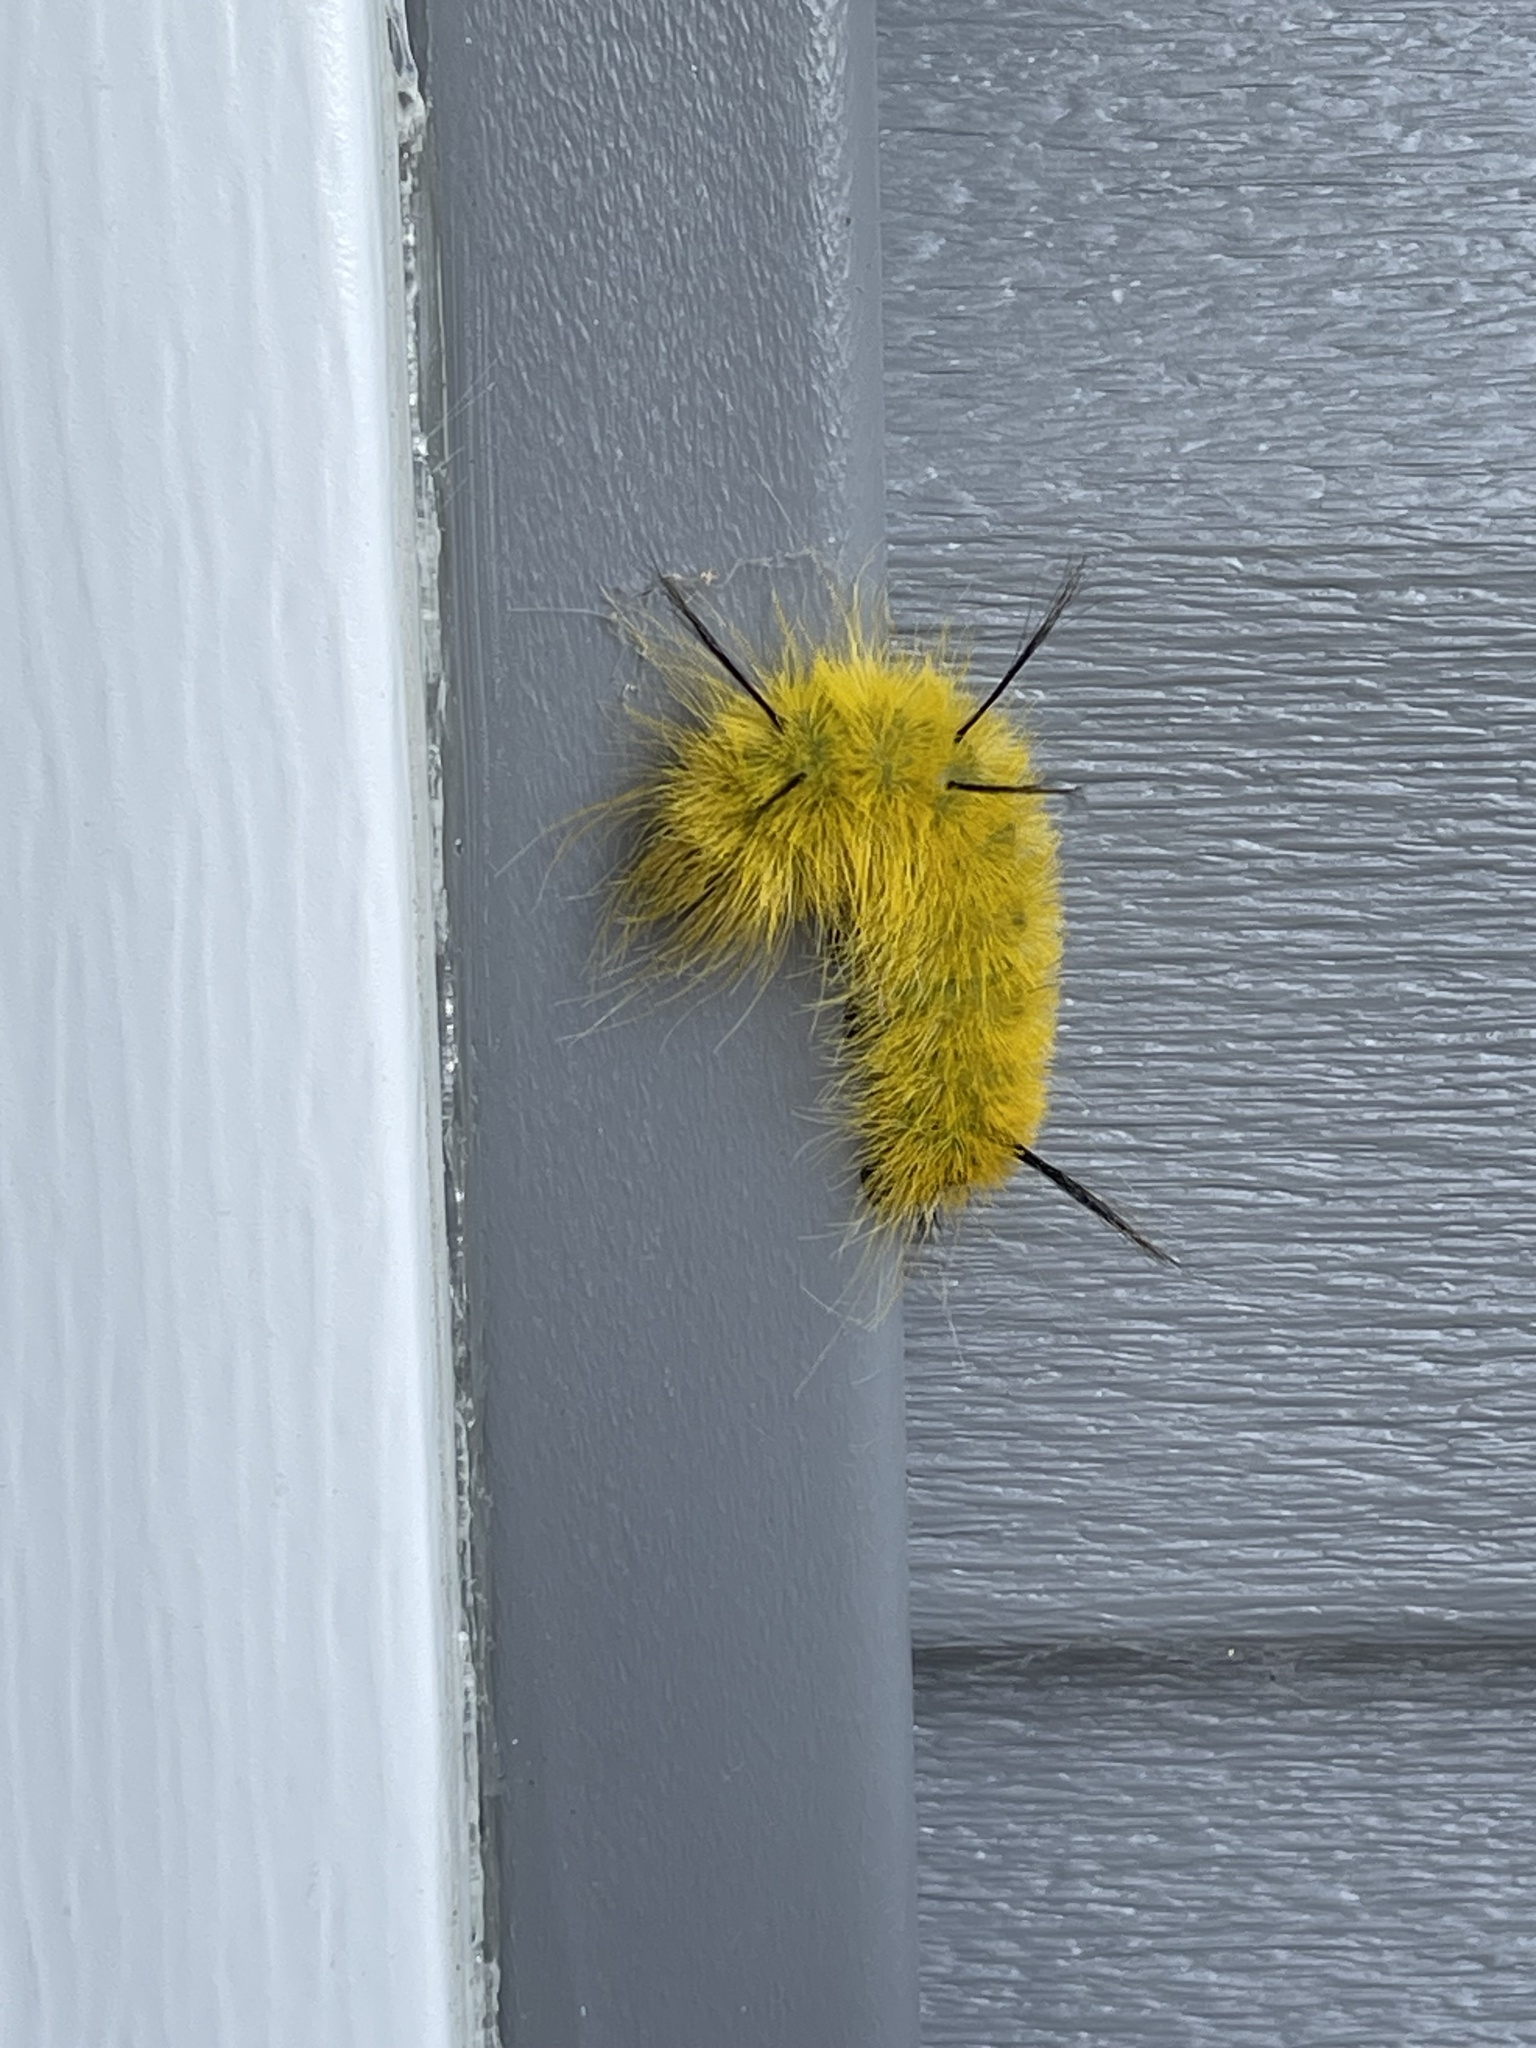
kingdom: Animalia
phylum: Arthropoda
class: Insecta
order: Lepidoptera
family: Noctuidae
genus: Acronicta
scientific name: Acronicta americana
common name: American dagger
